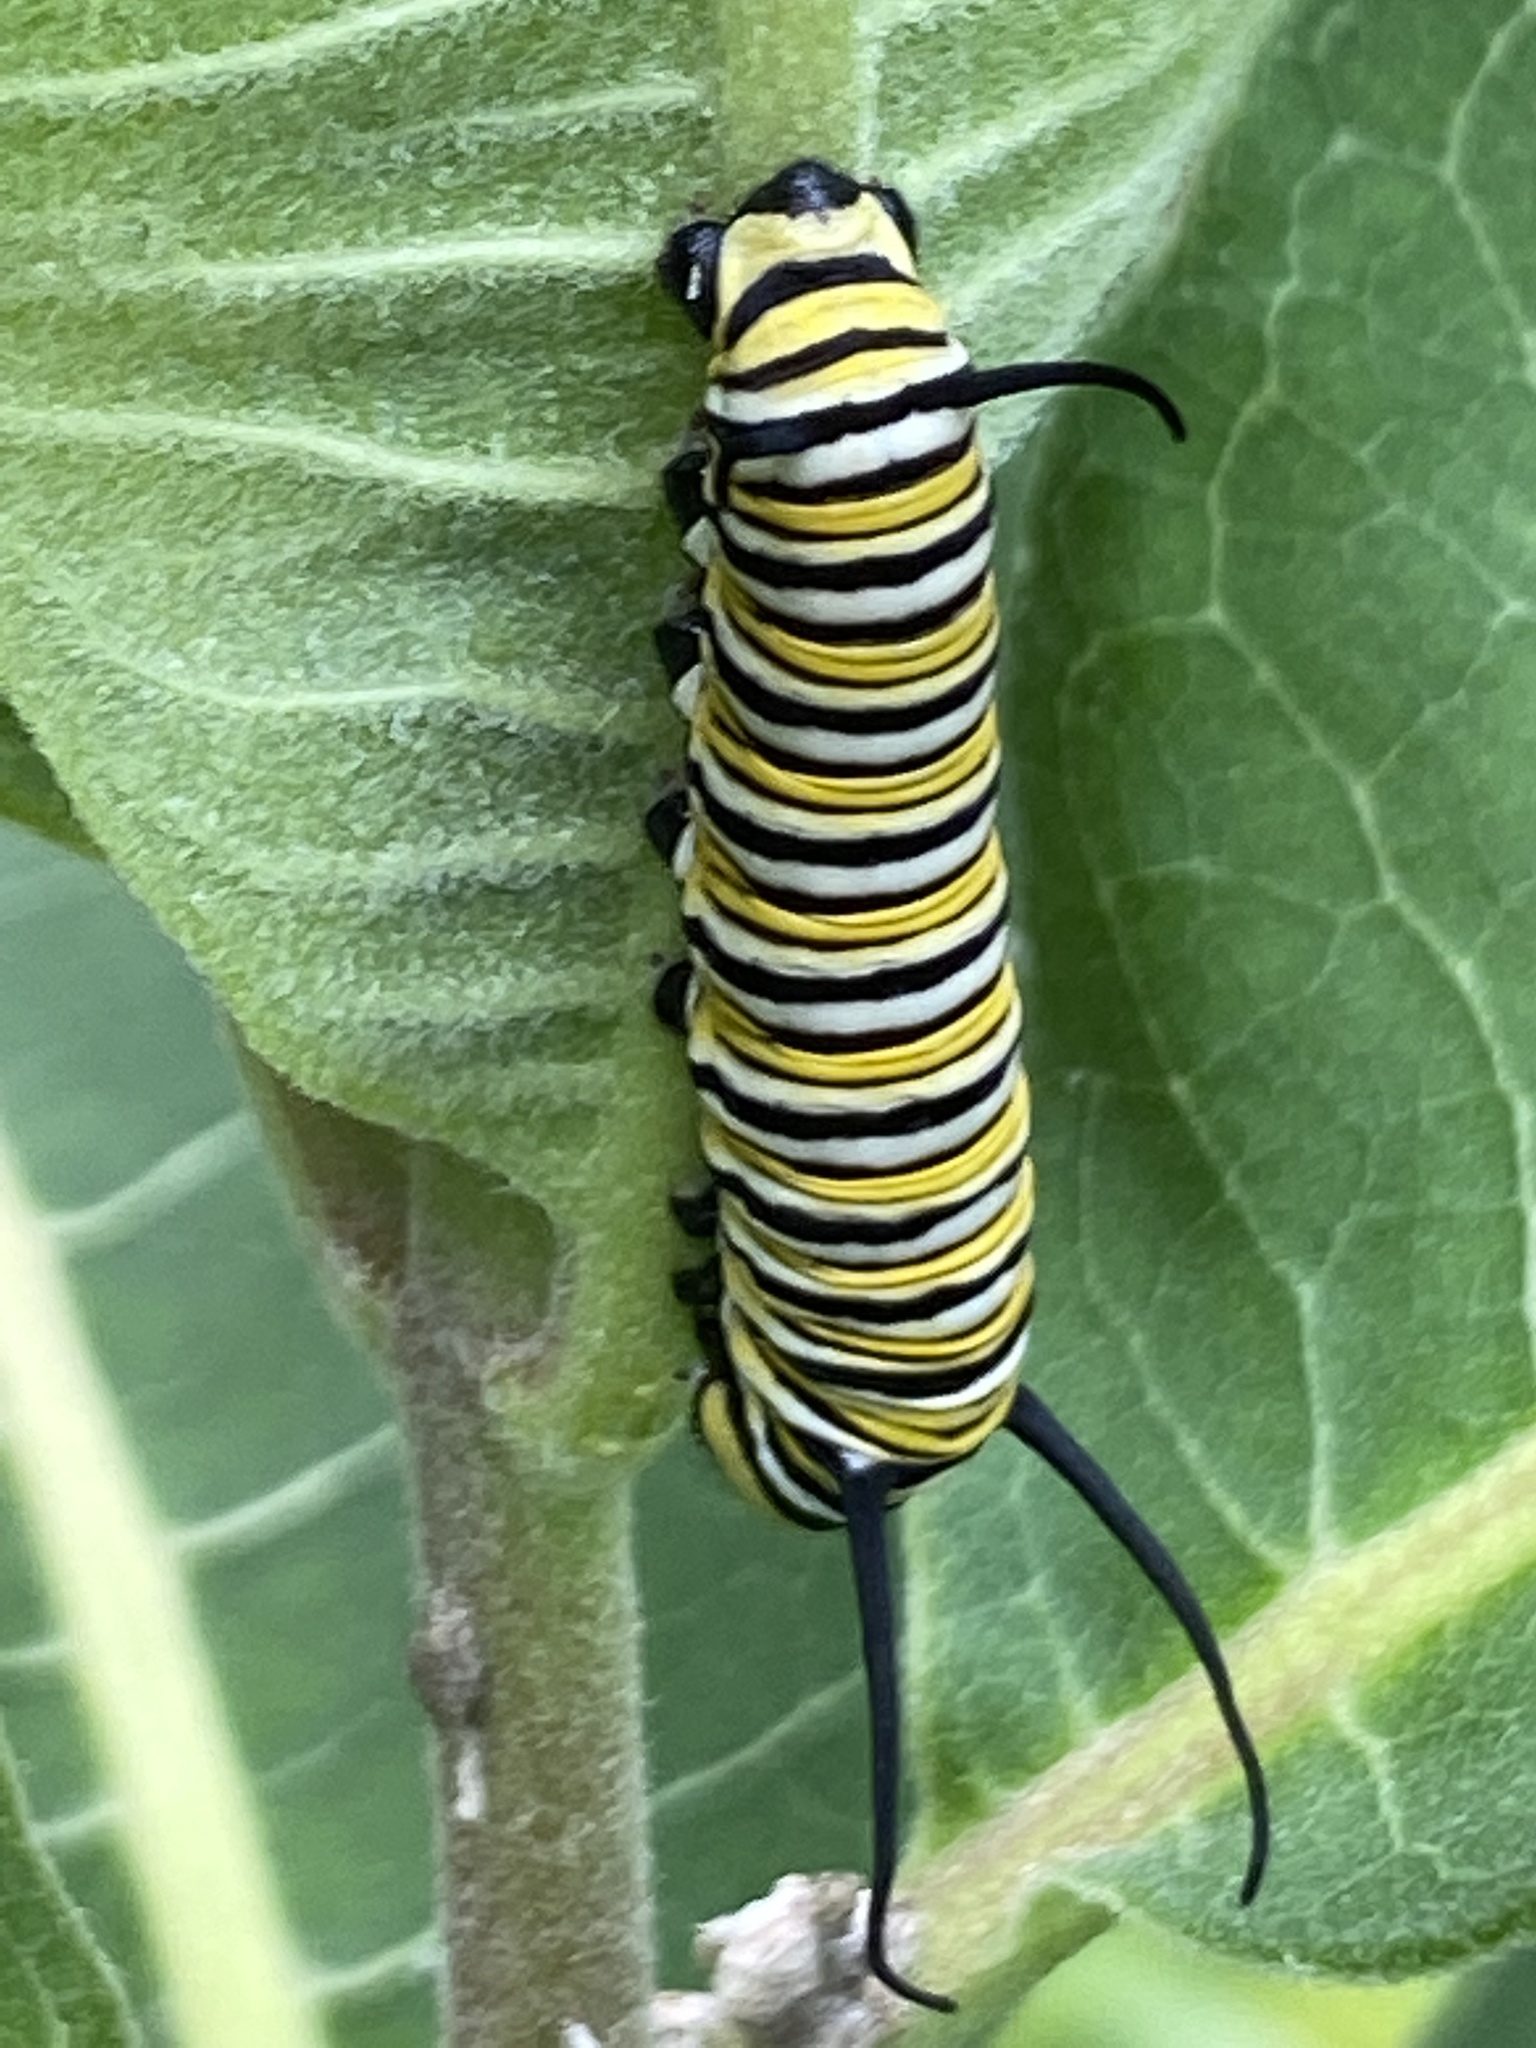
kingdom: Animalia
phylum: Arthropoda
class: Insecta
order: Lepidoptera
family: Nymphalidae
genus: Danaus
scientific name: Danaus plexippus
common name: Monarch
